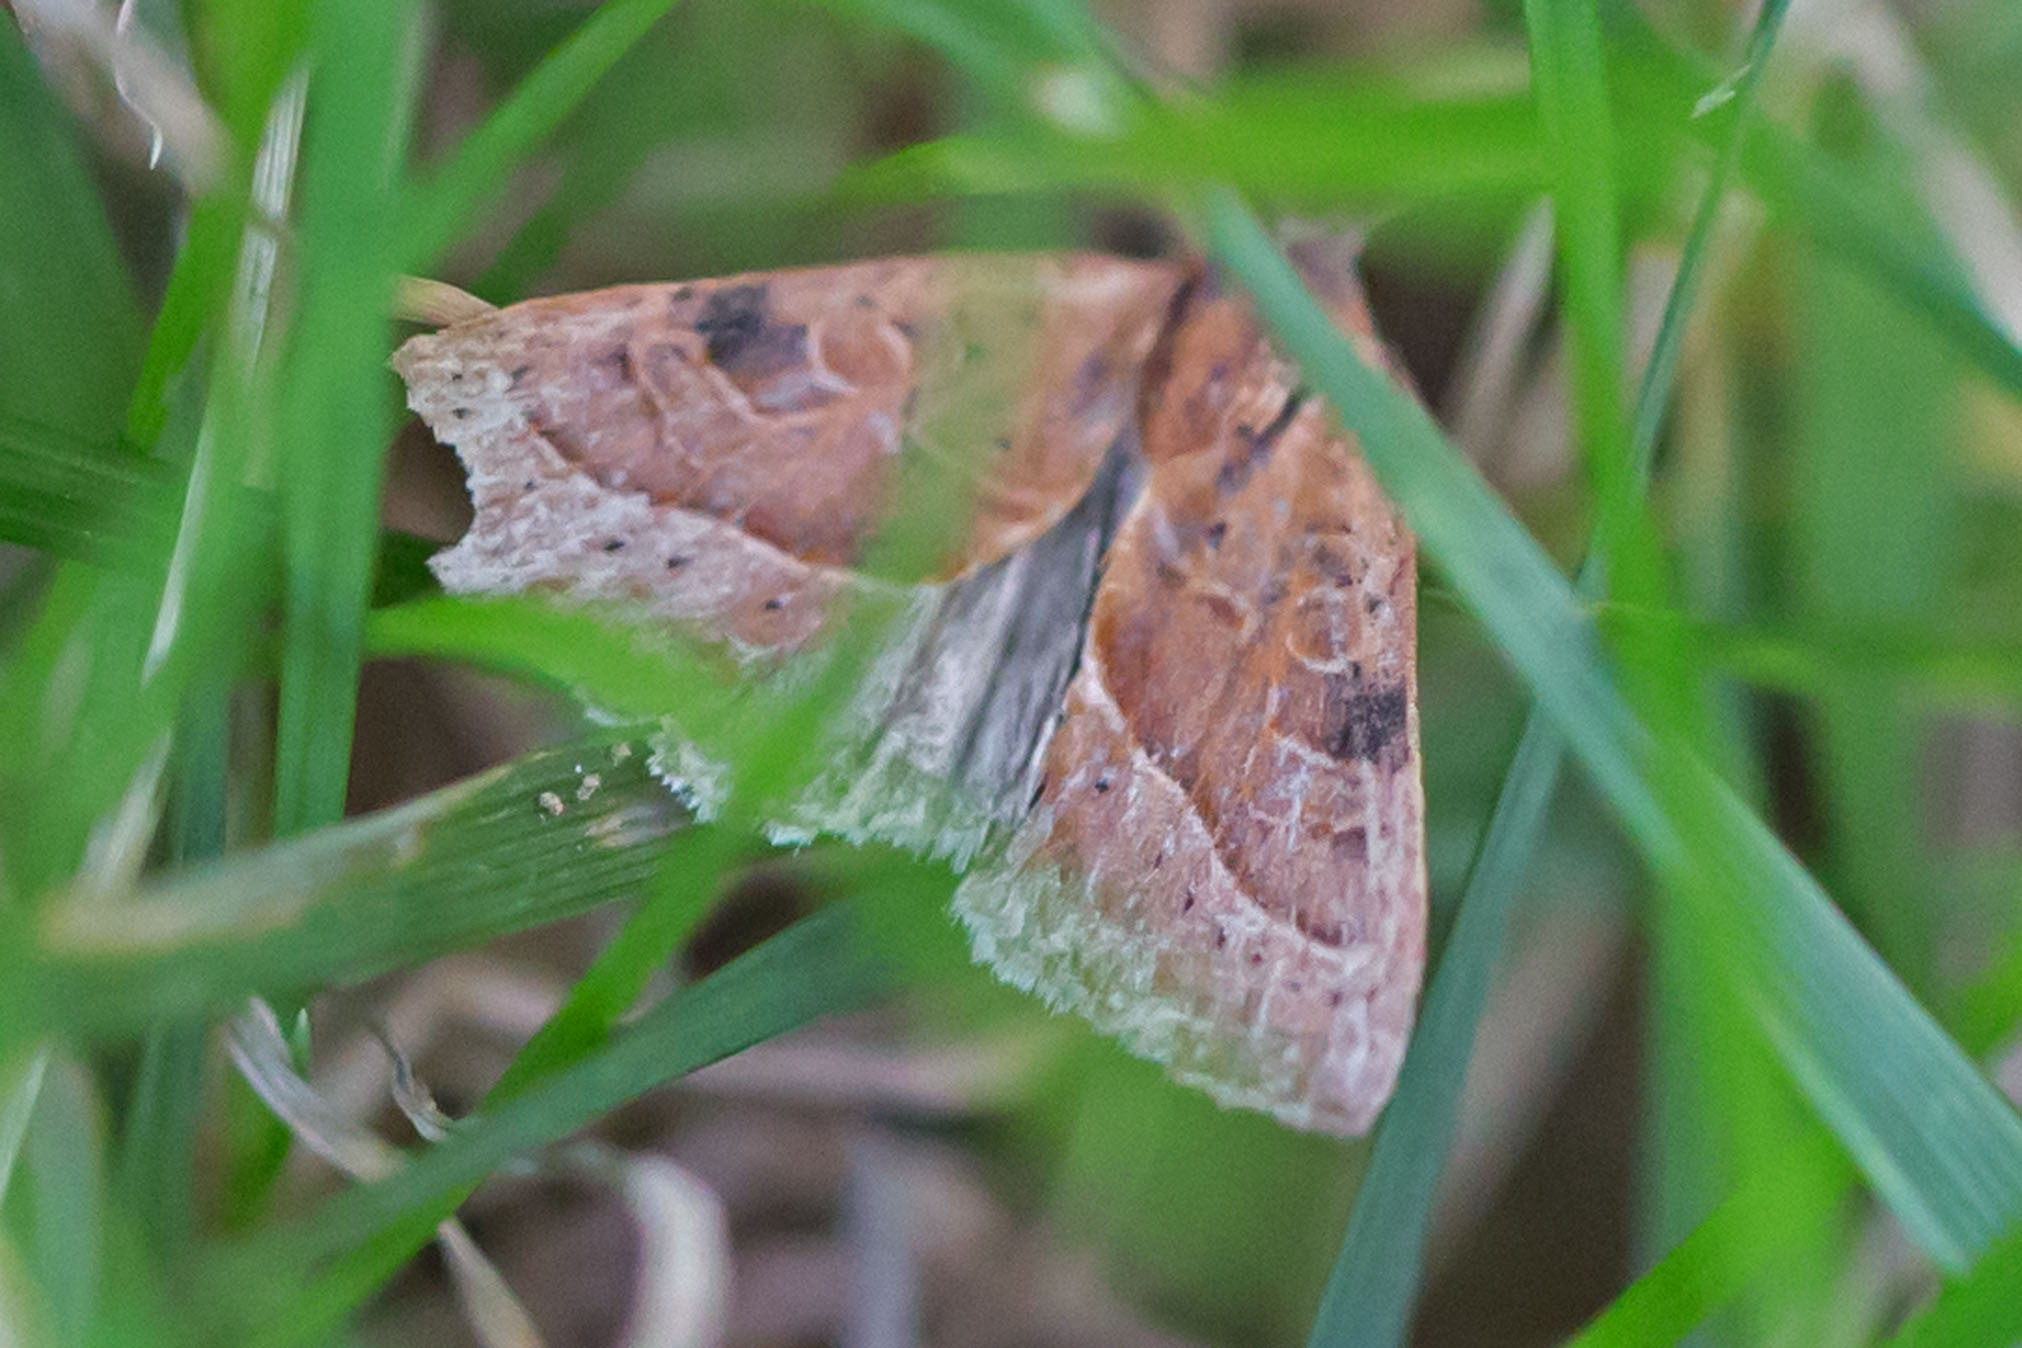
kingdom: Animalia
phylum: Arthropoda
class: Insecta
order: Lepidoptera
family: Noctuidae
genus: Galgula
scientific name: Galgula partita
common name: Wedgeling
